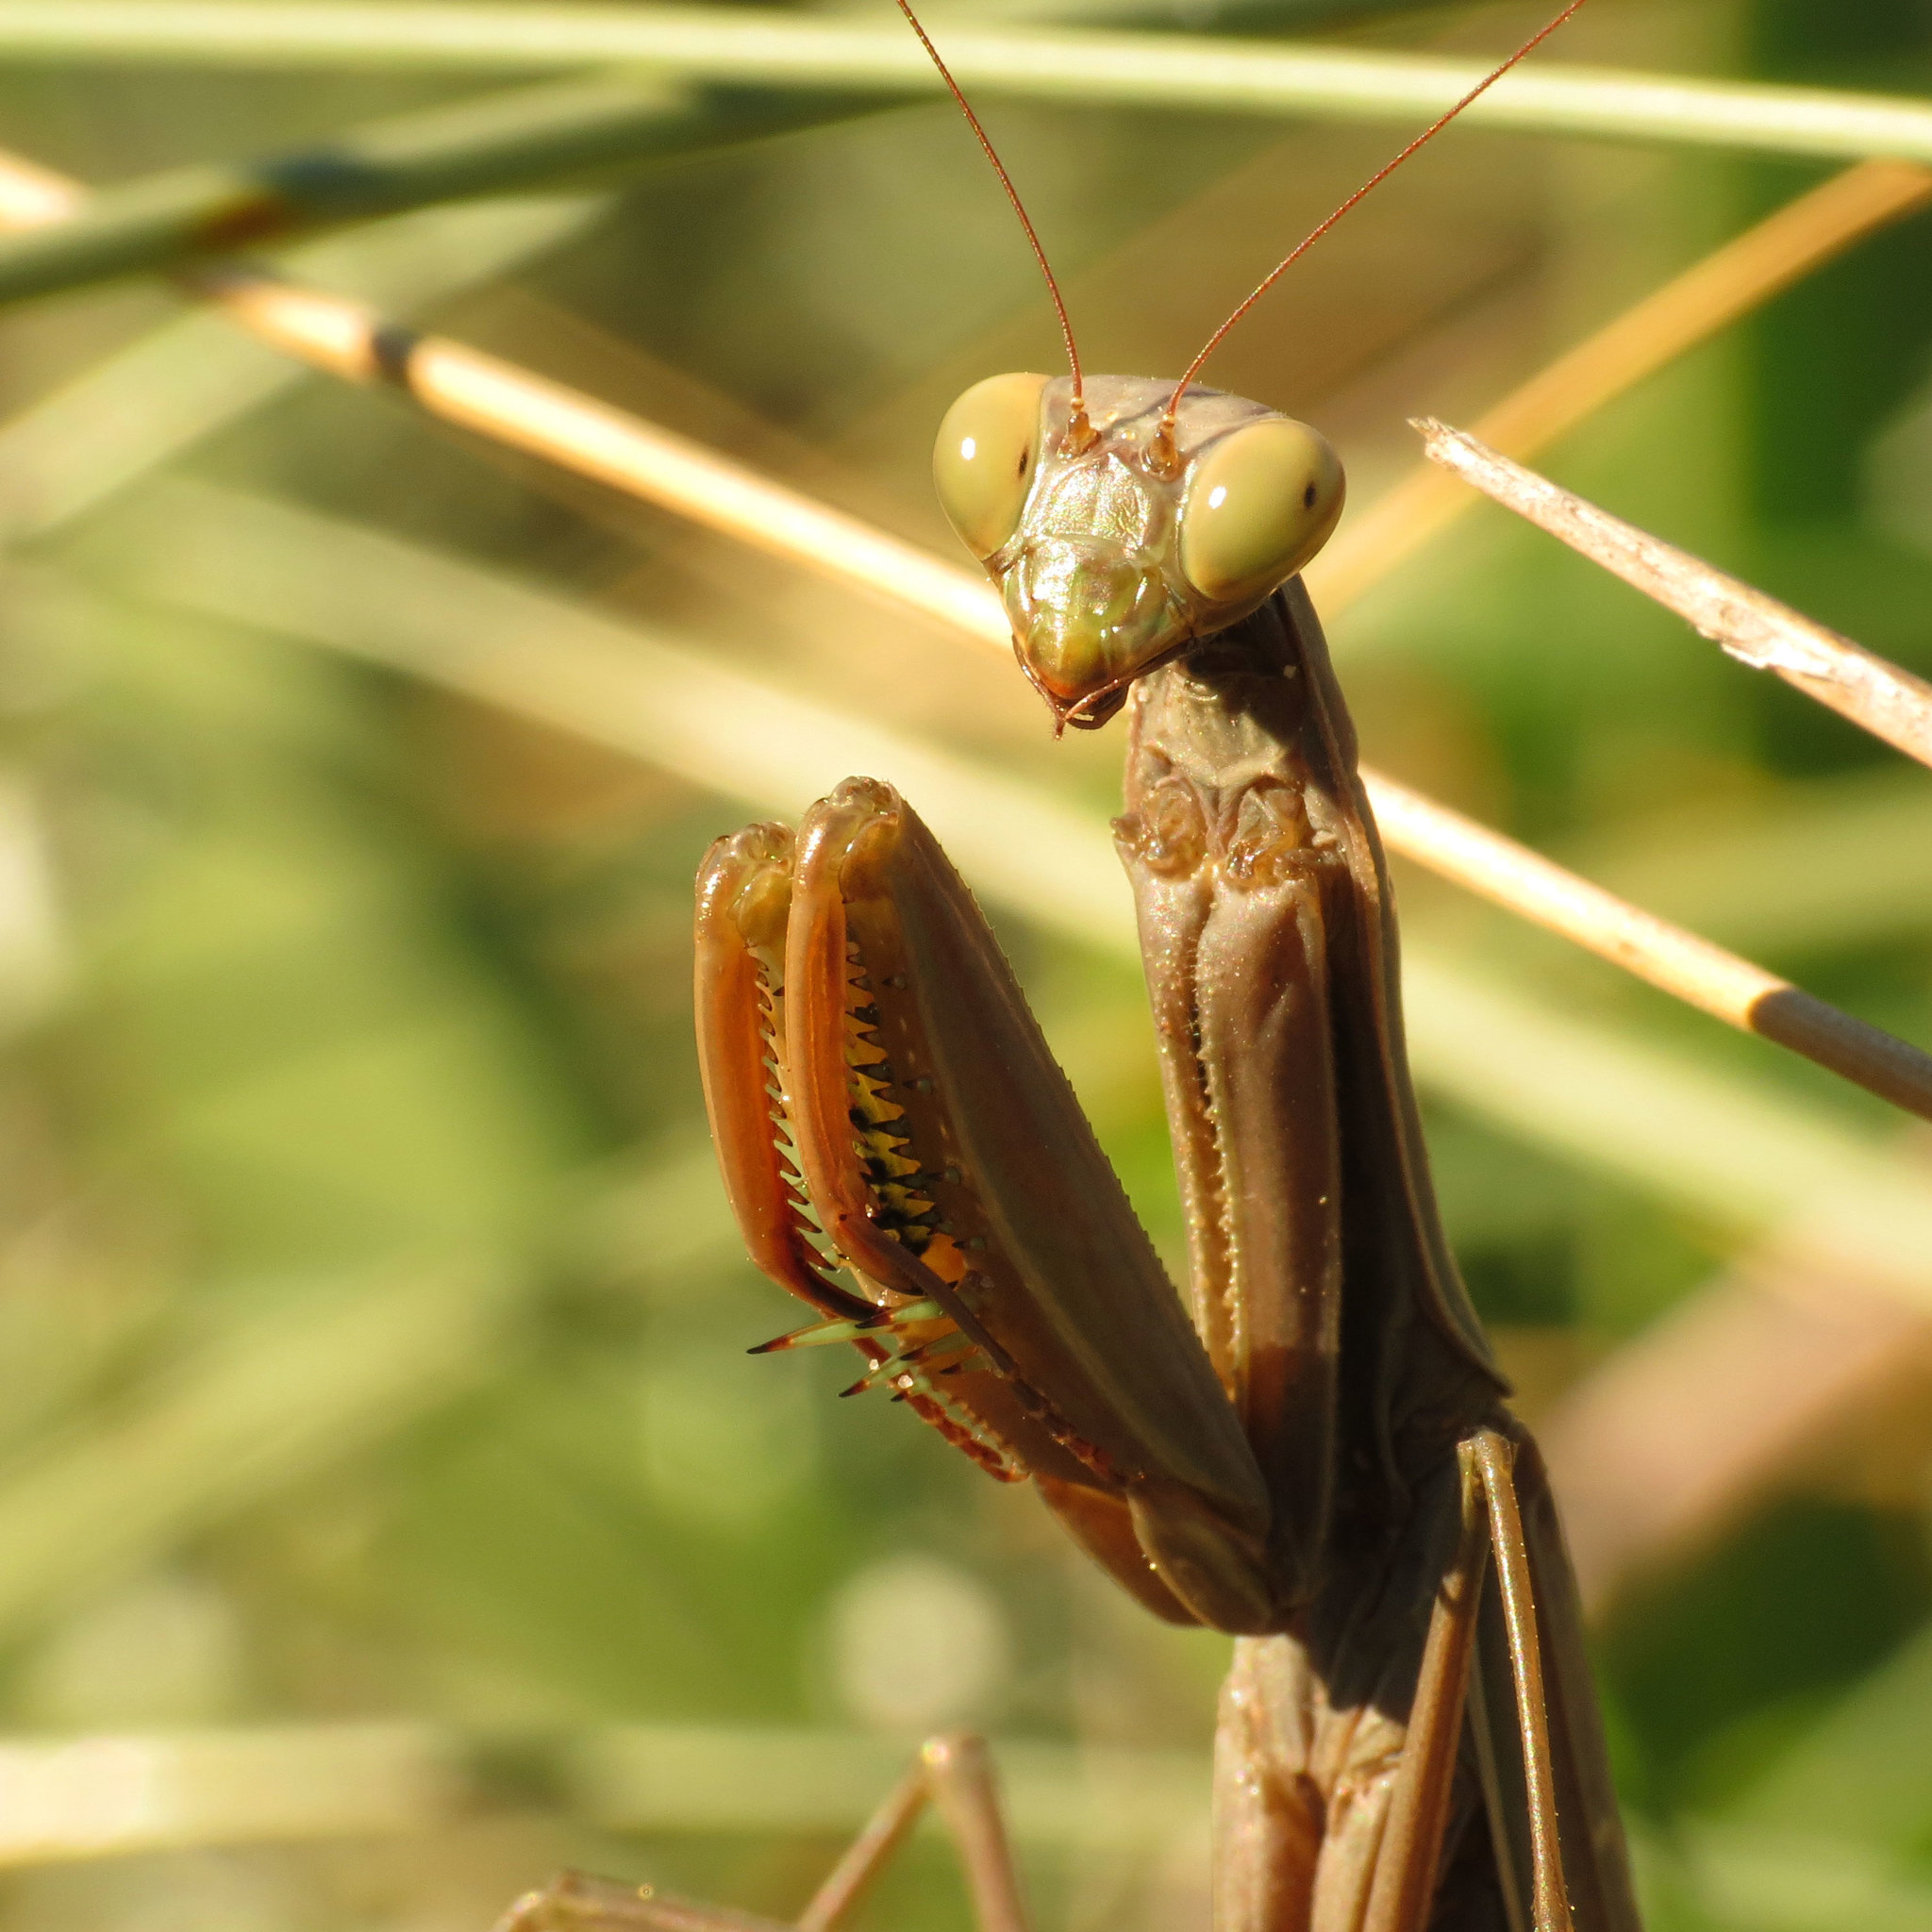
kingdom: Animalia
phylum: Arthropoda
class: Insecta
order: Mantodea
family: Mantidae
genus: Mantis
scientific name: Mantis religiosa
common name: Praying mantis
